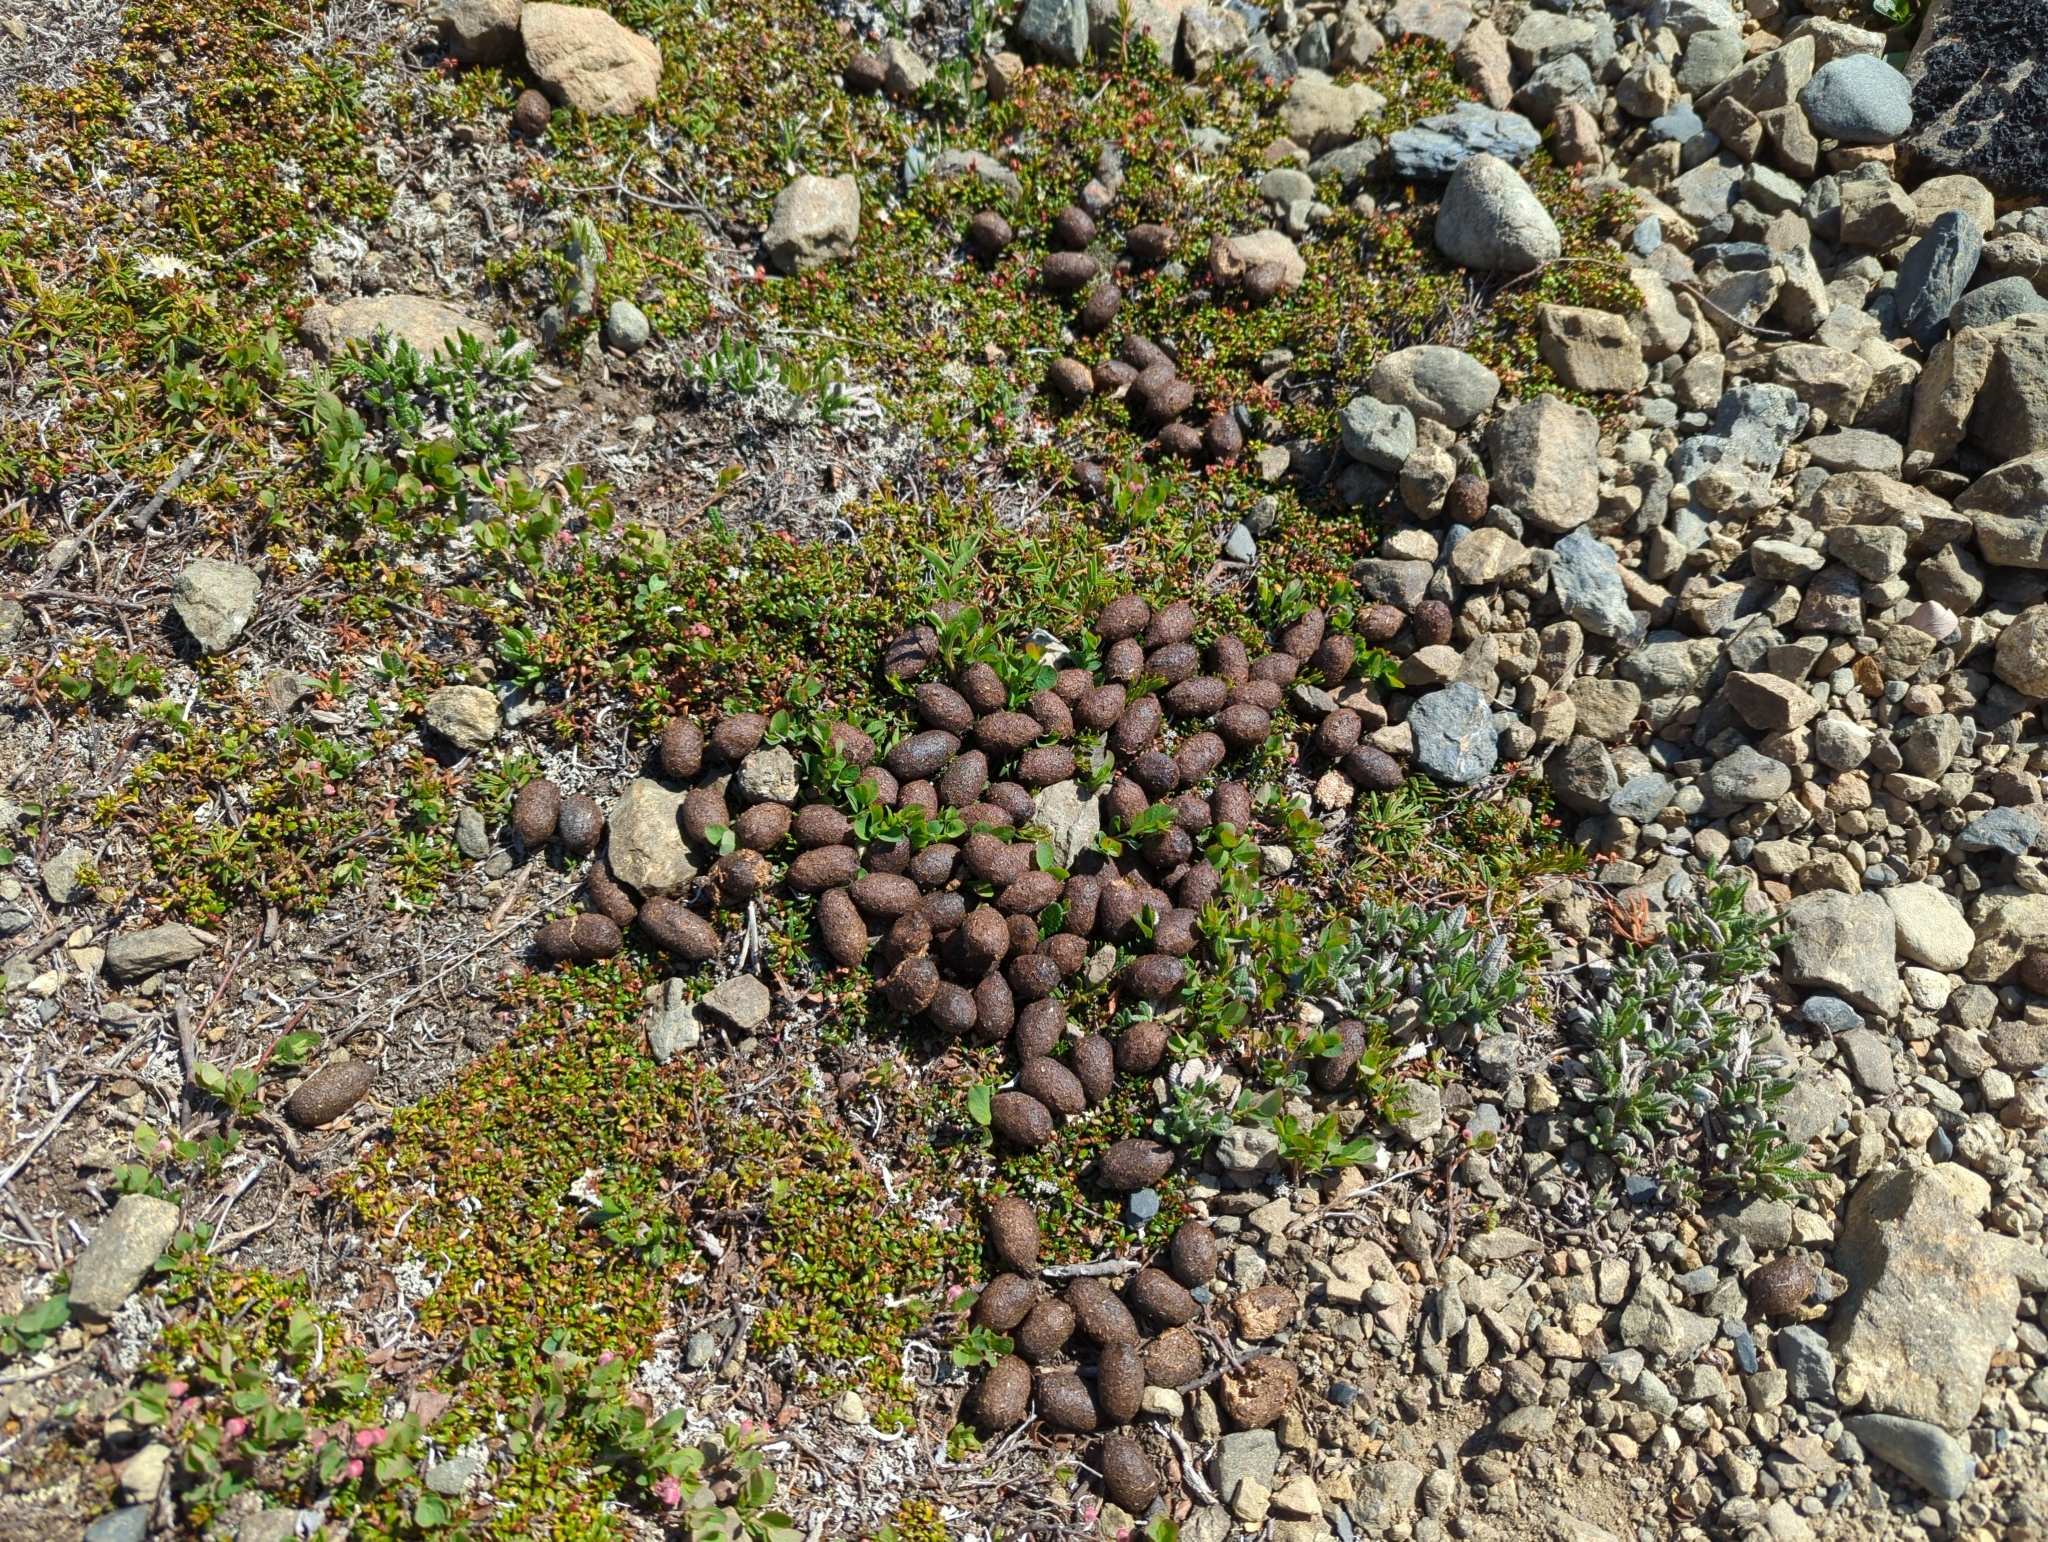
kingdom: Animalia
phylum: Chordata
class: Mammalia
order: Artiodactyla
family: Cervidae
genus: Alces
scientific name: Alces alces
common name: Moose
